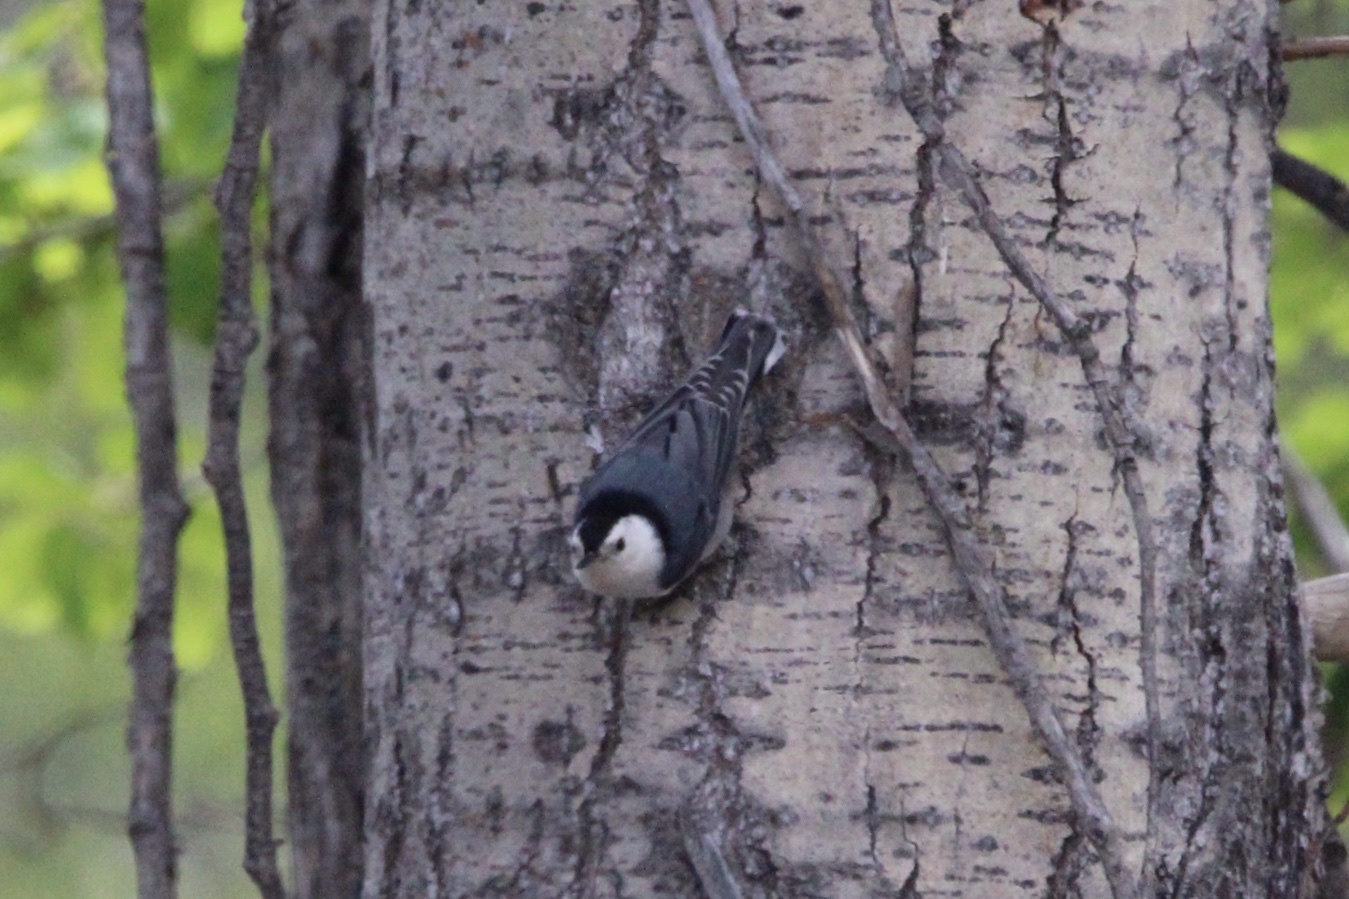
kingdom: Animalia
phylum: Chordata
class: Aves
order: Passeriformes
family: Sittidae
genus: Sitta
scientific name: Sitta carolinensis
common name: White-breasted nuthatch
